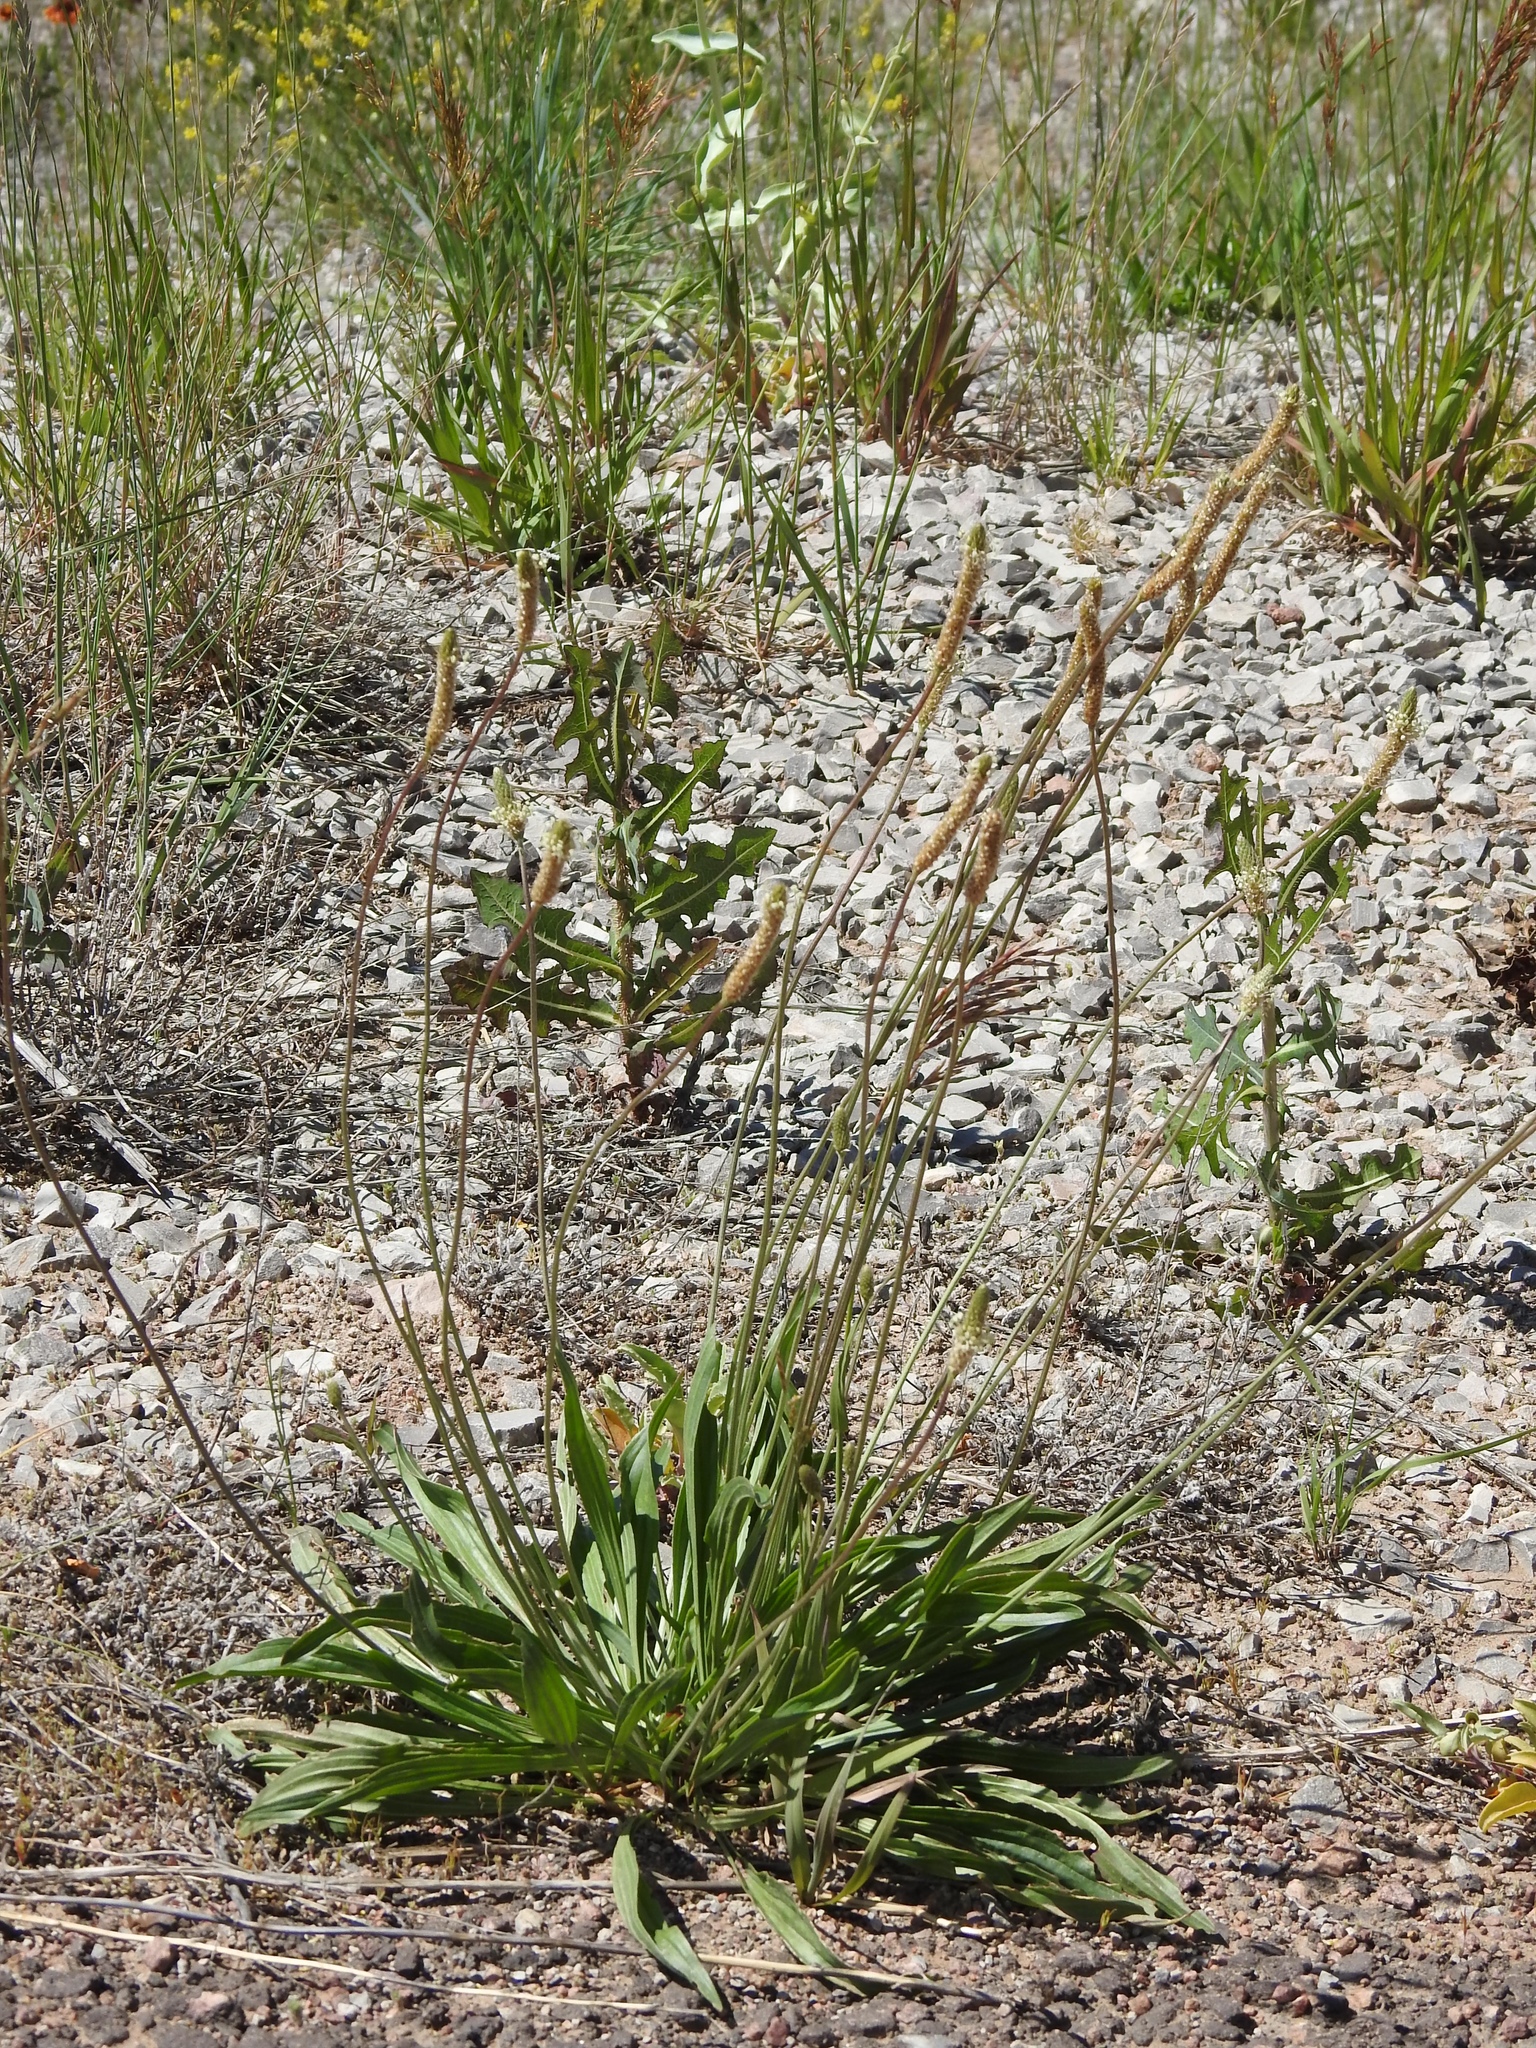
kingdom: Plantae
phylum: Tracheophyta
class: Magnoliopsida
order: Lamiales
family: Plantaginaceae
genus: Plantago
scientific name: Plantago lanceolata
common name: Ribwort plantain
